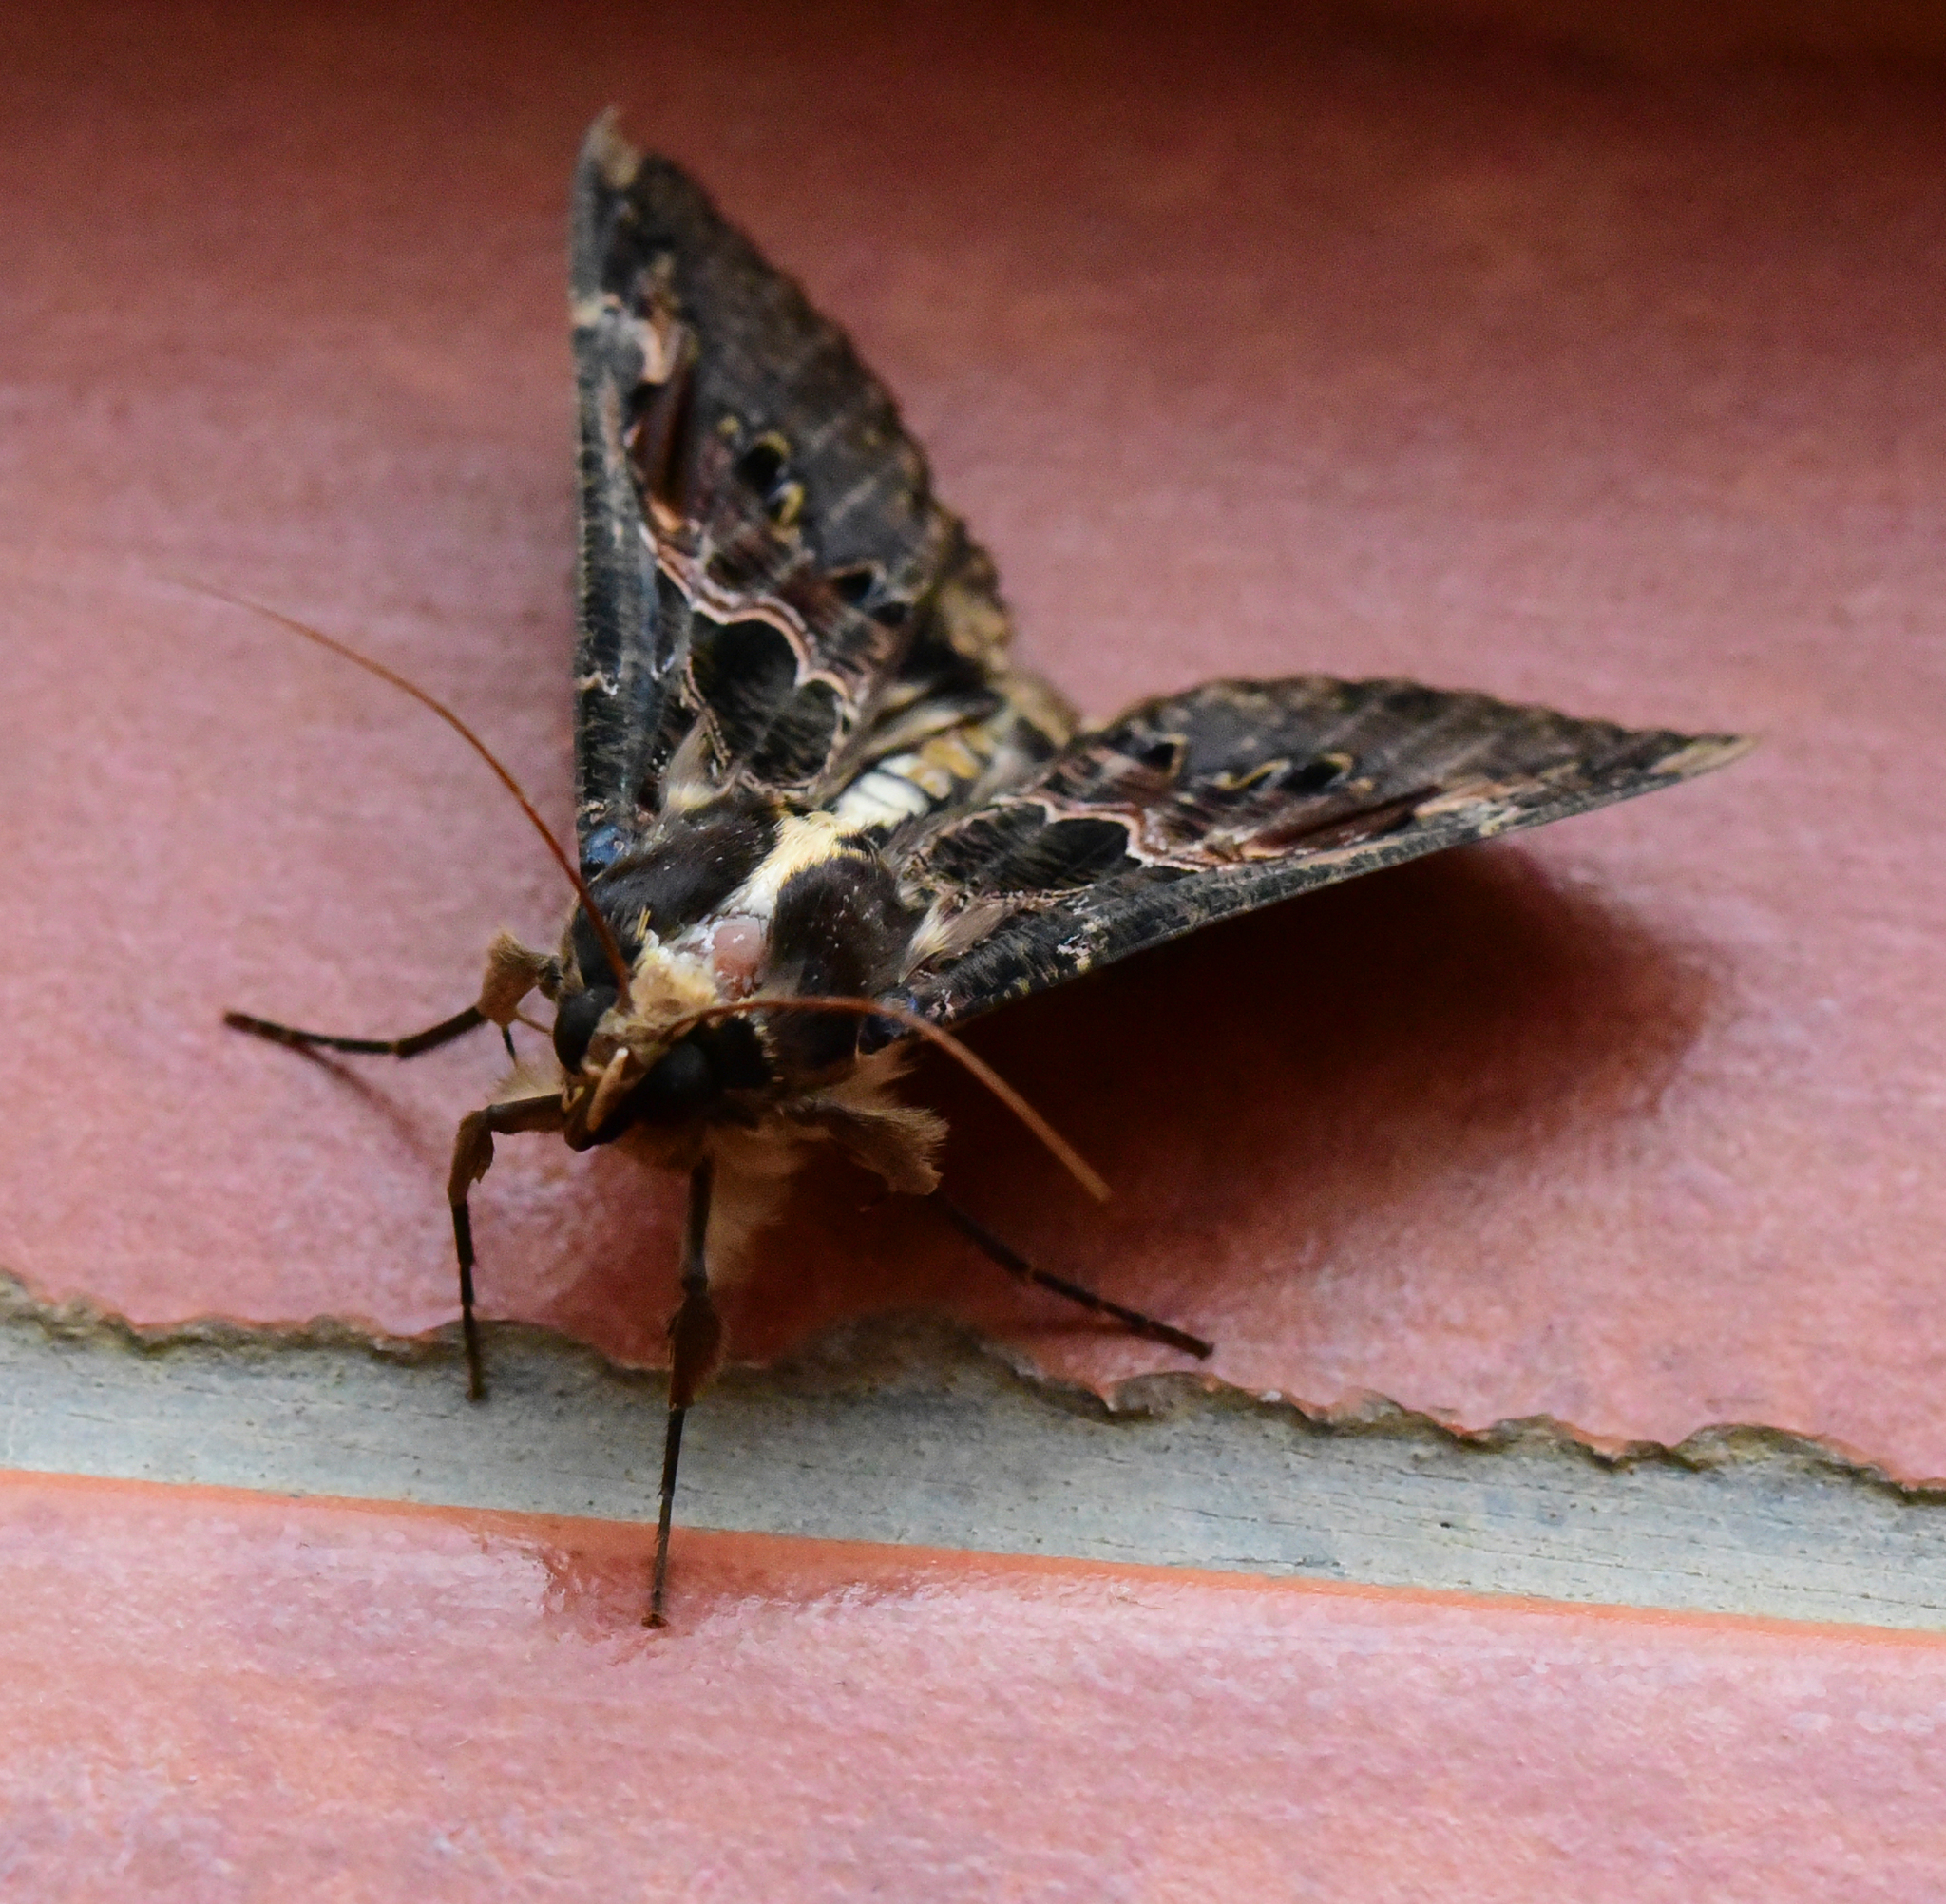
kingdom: Animalia
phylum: Arthropoda
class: Insecta
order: Lepidoptera
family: Erebidae
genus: Sphingomorpha
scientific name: Sphingomorpha chlorea
